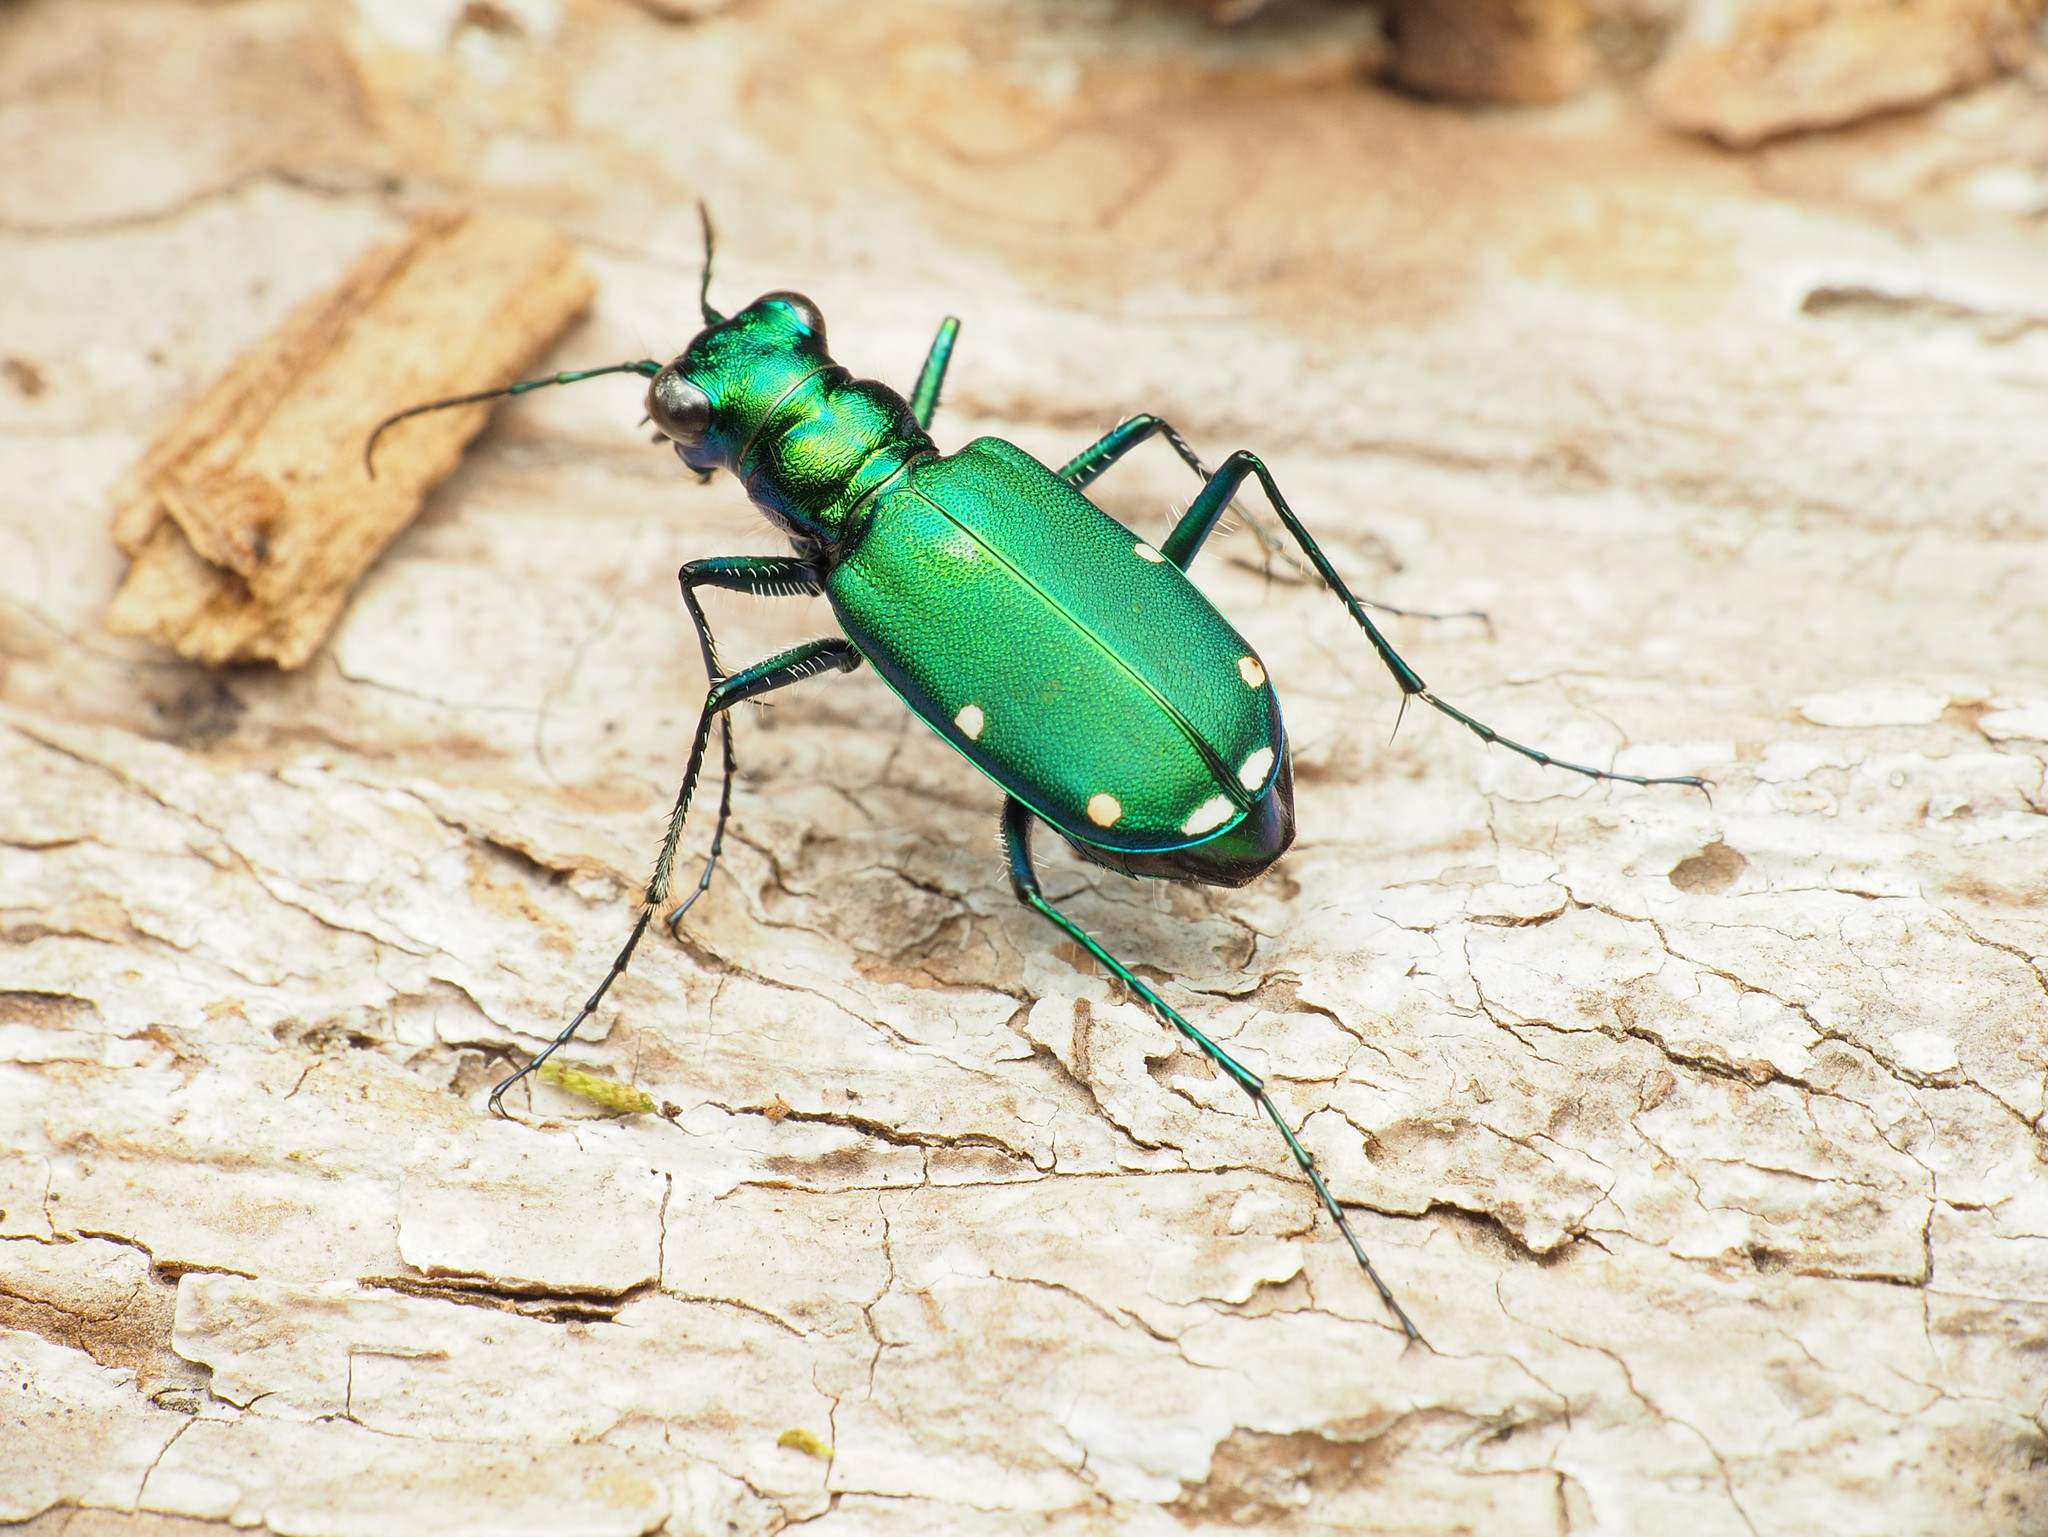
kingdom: Animalia
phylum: Arthropoda
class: Insecta
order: Coleoptera
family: Carabidae
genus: Cicindela
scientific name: Cicindela sexguttata
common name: Six-spotted tiger beetle
